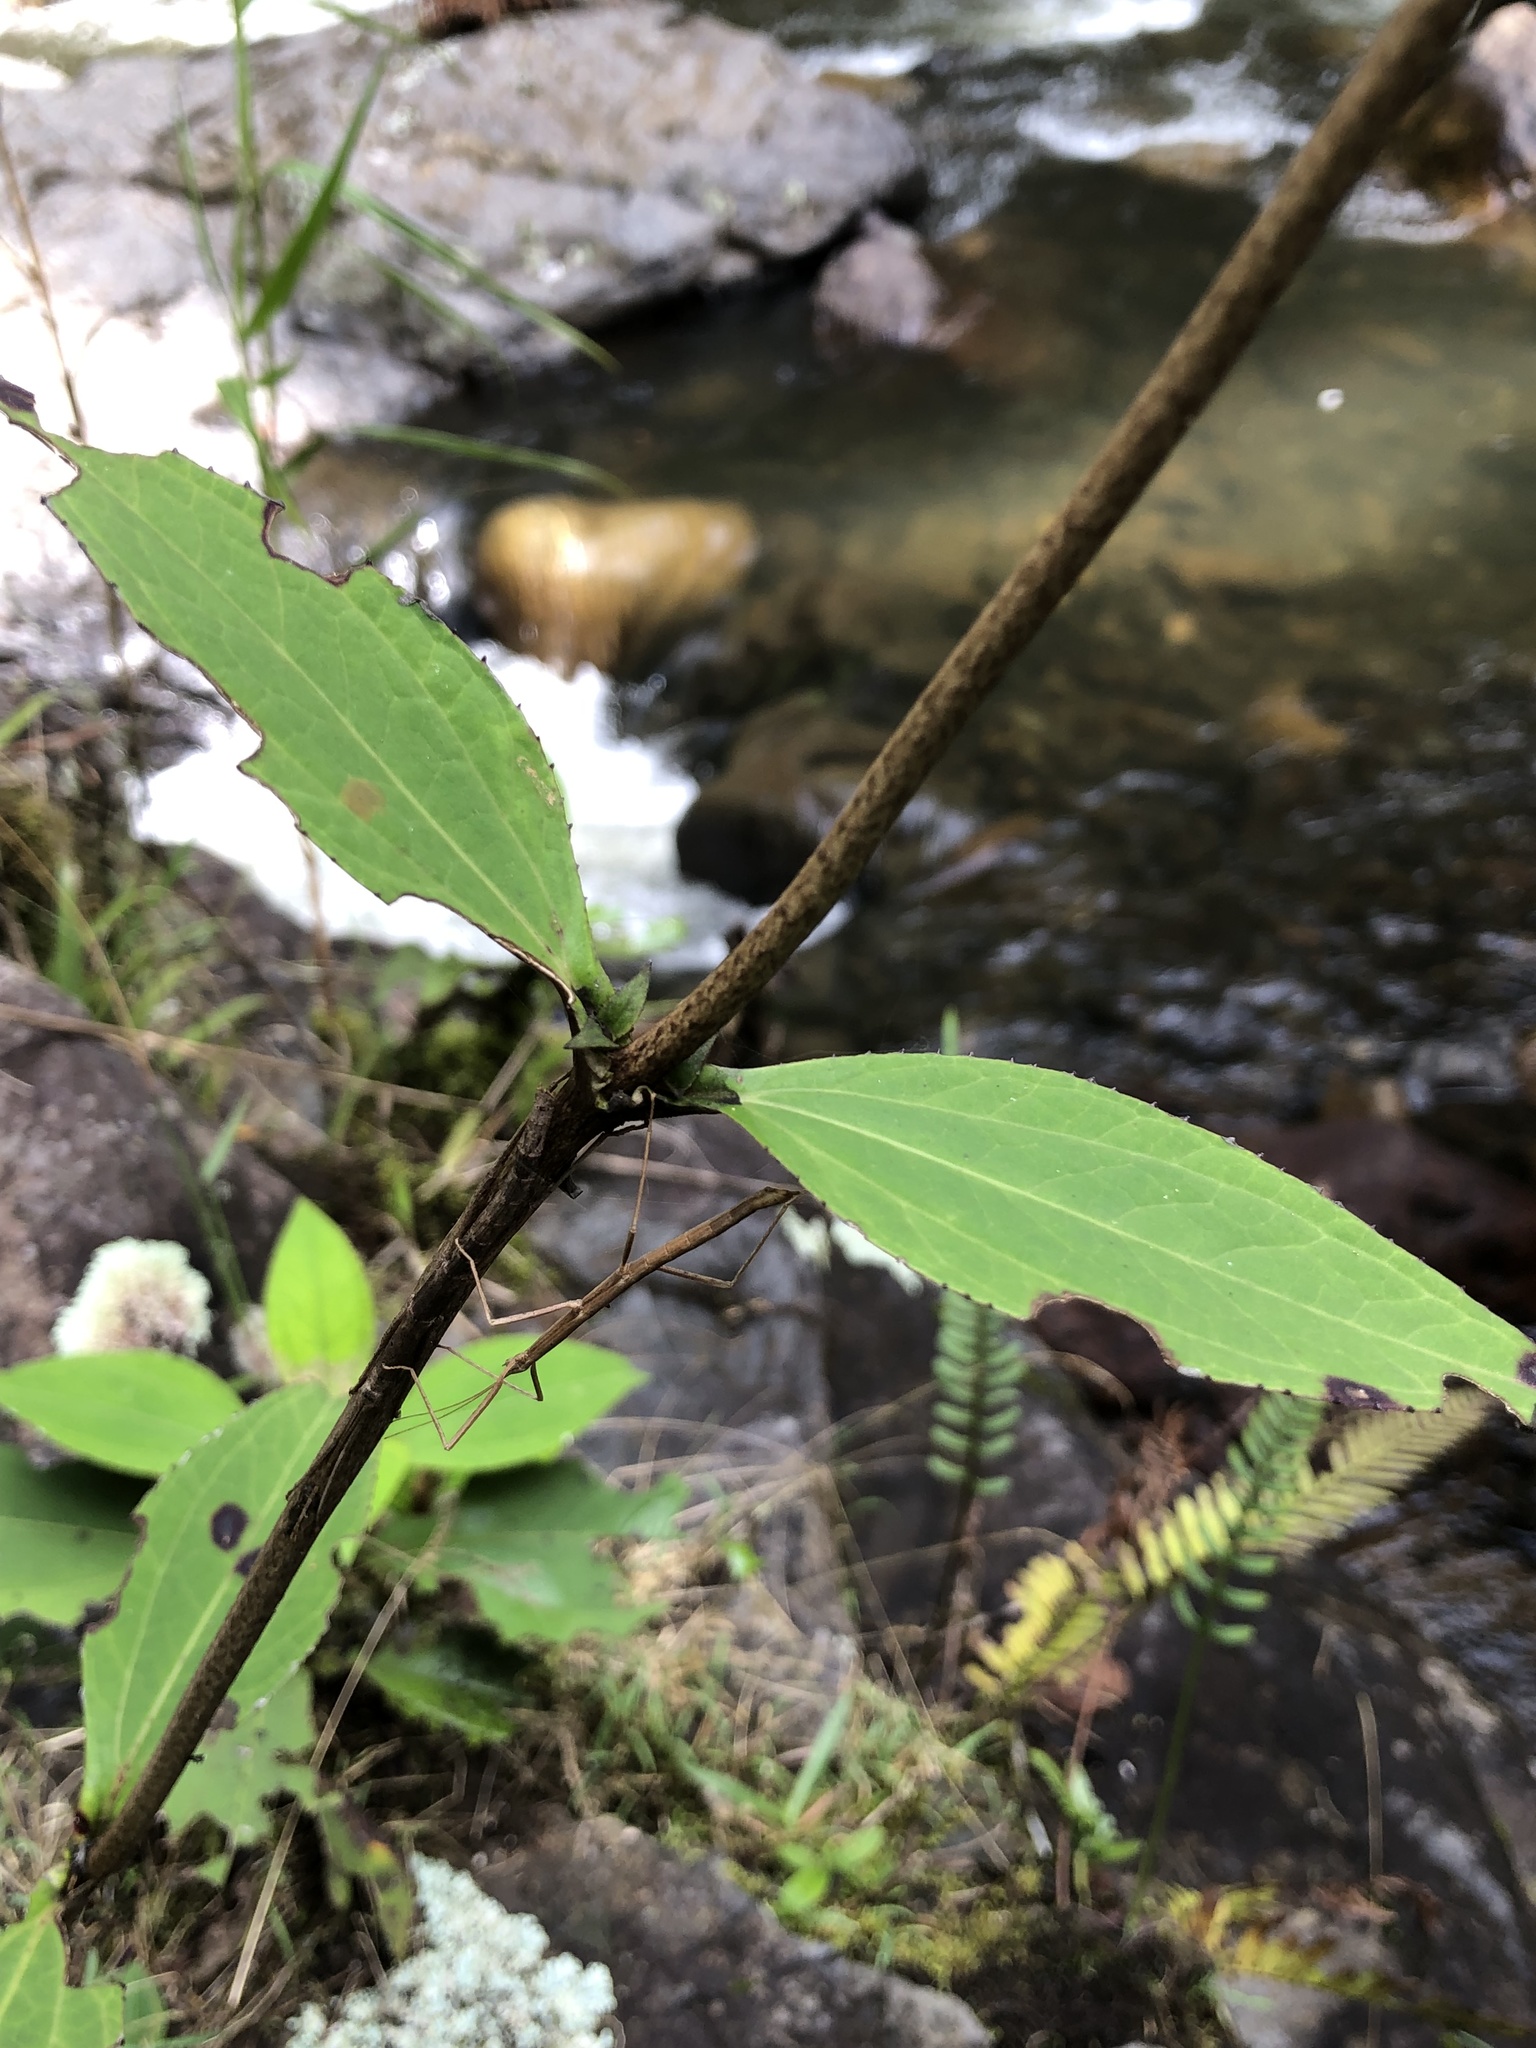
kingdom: Plantae
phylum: Tracheophyta
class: Magnoliopsida
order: Asterales
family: Asteraceae
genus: Liabum
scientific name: Liabum asclepiadeum
